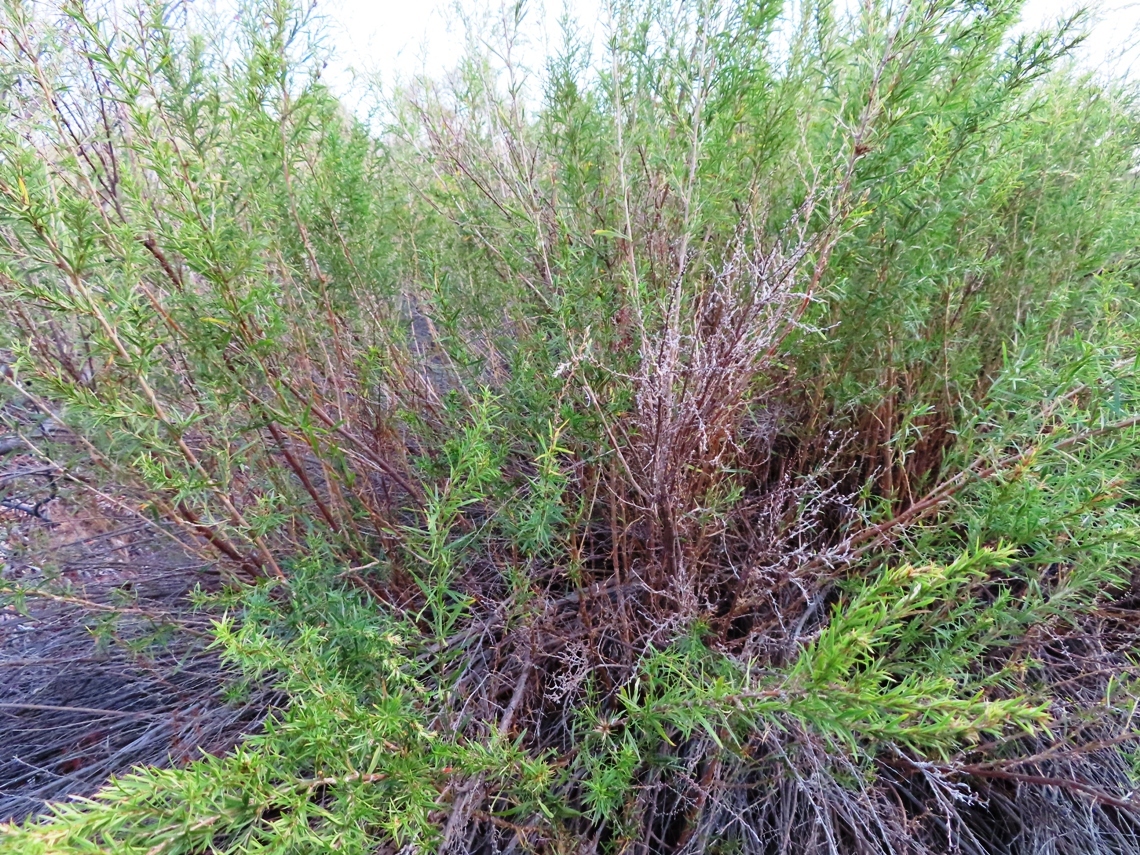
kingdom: Plantae
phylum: Tracheophyta
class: Magnoliopsida
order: Rosales
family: Rosaceae
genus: Cliffortia
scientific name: Cliffortia strobilifera
